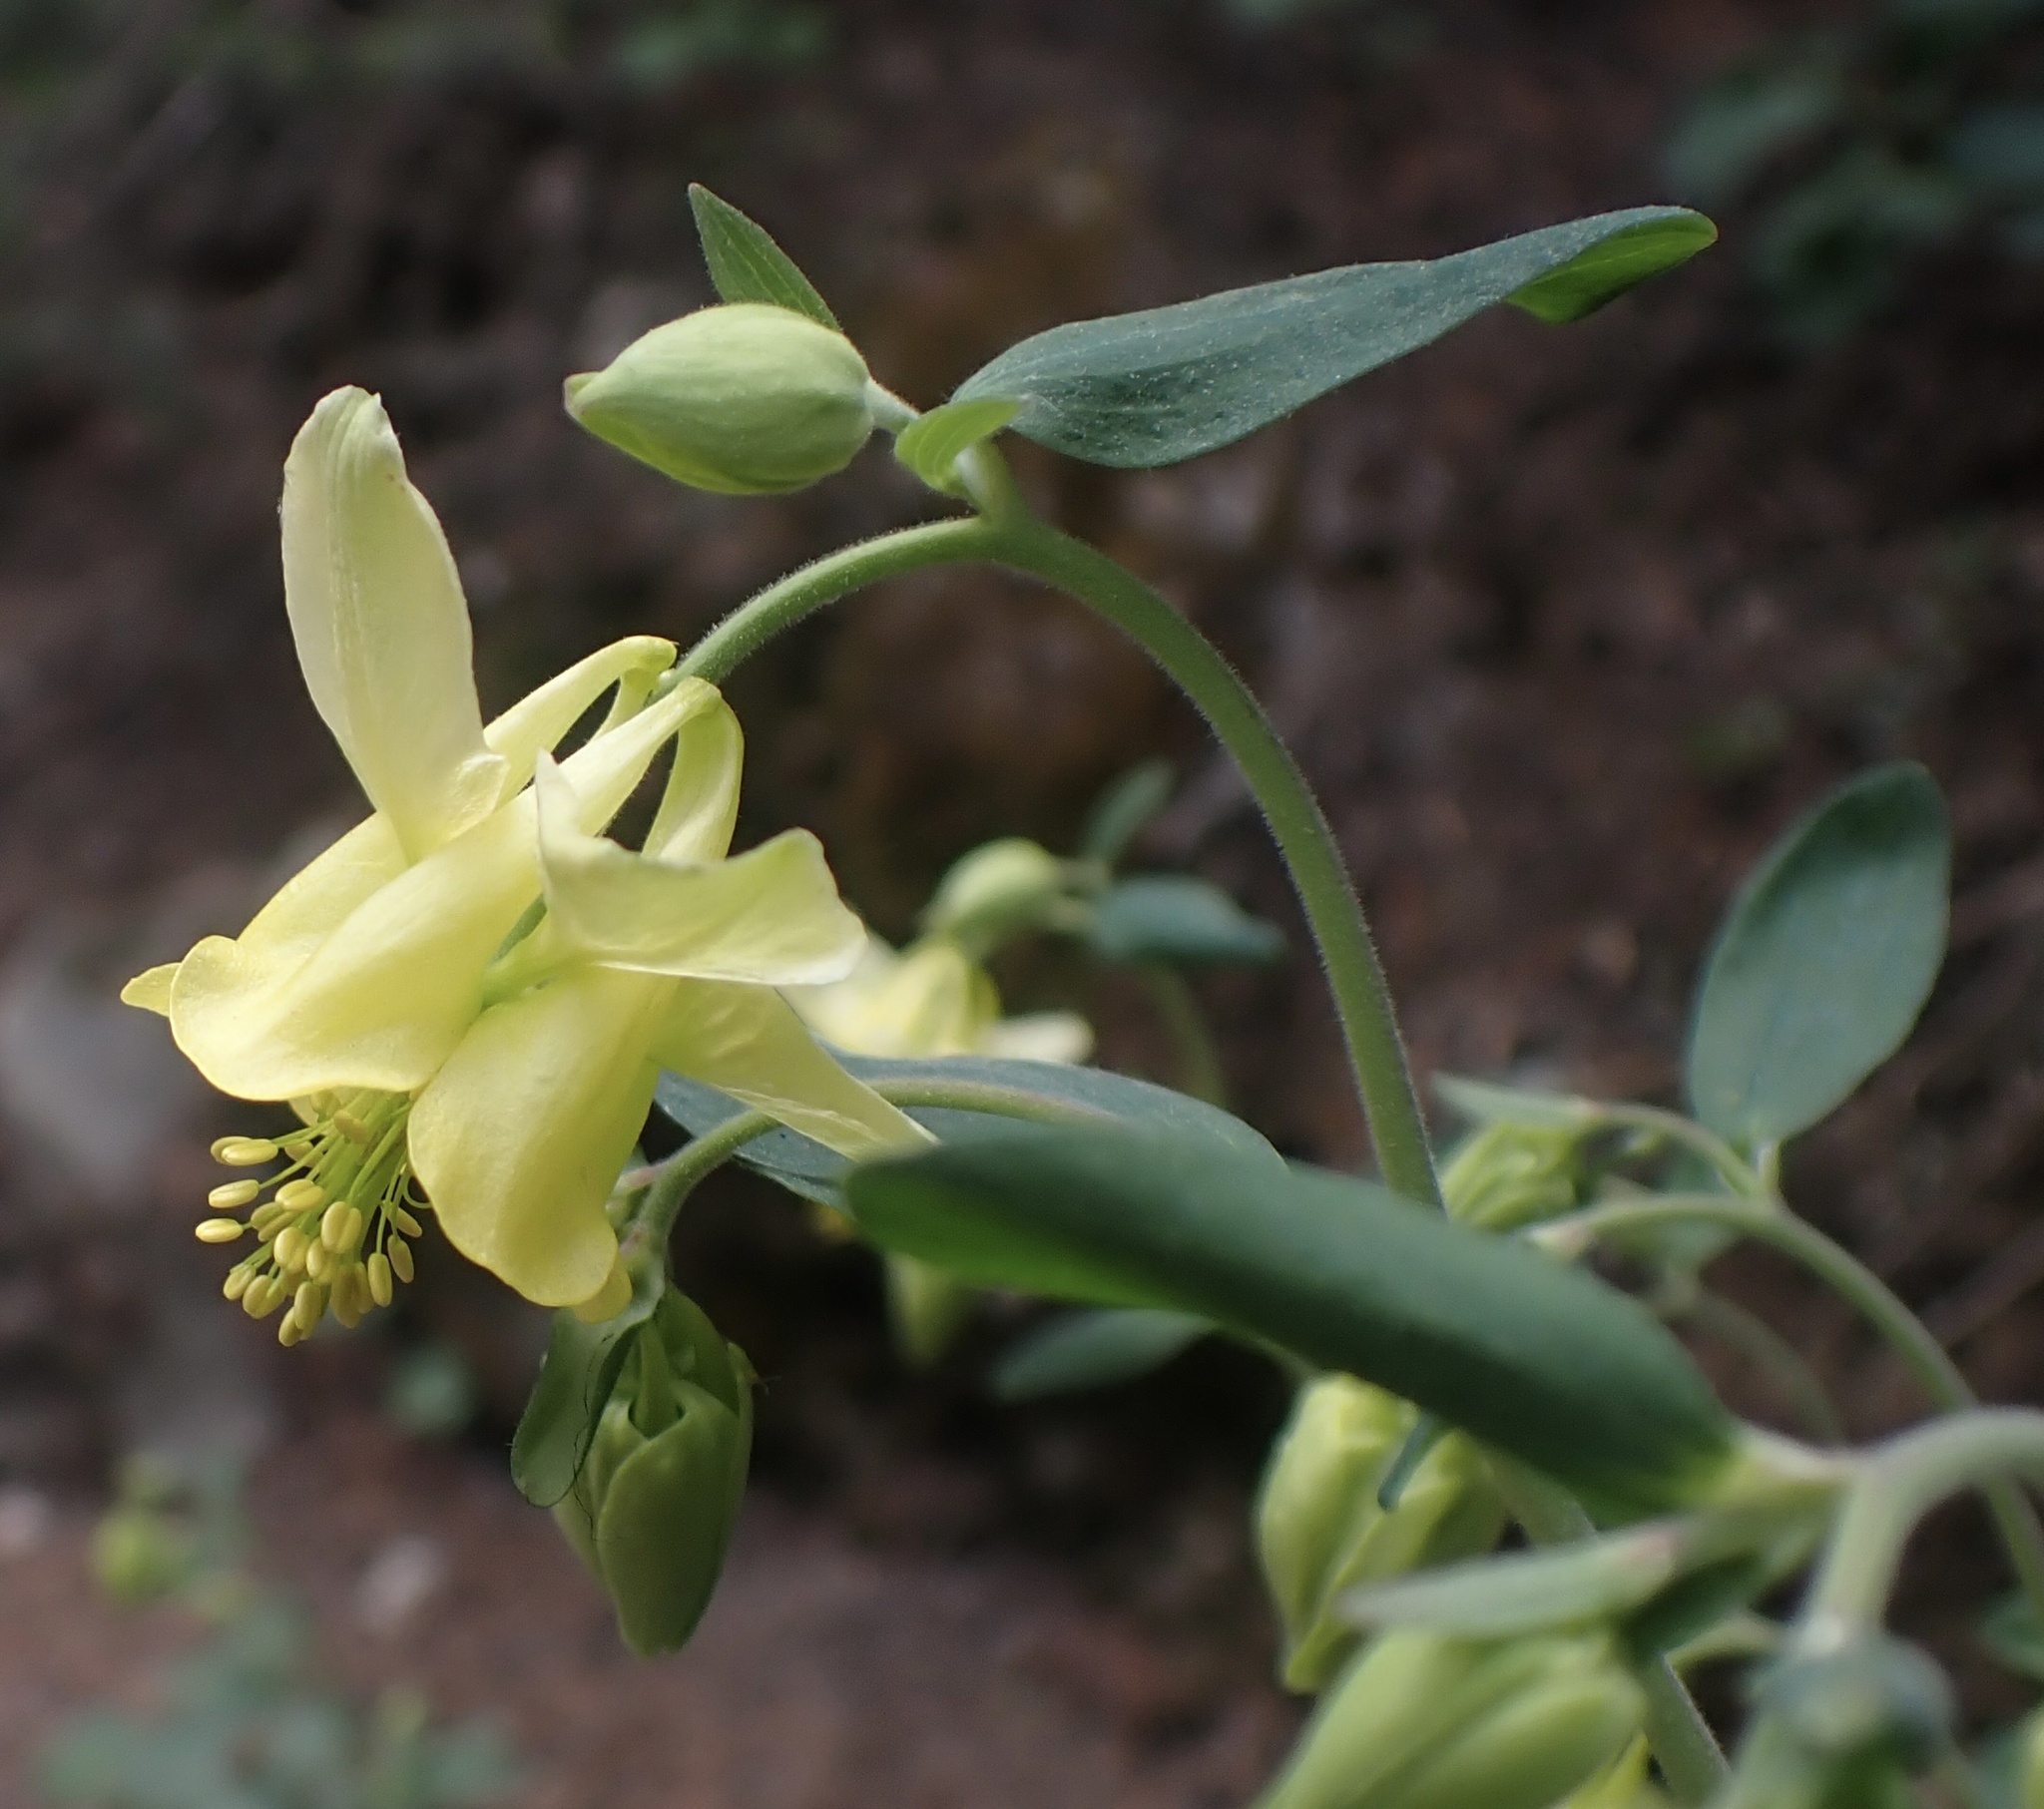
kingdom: Plantae
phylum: Tracheophyta
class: Magnoliopsida
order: Ranunculales
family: Ranunculaceae
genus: Aquilegia
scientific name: Aquilegia flavescens
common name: Yellow columbine
